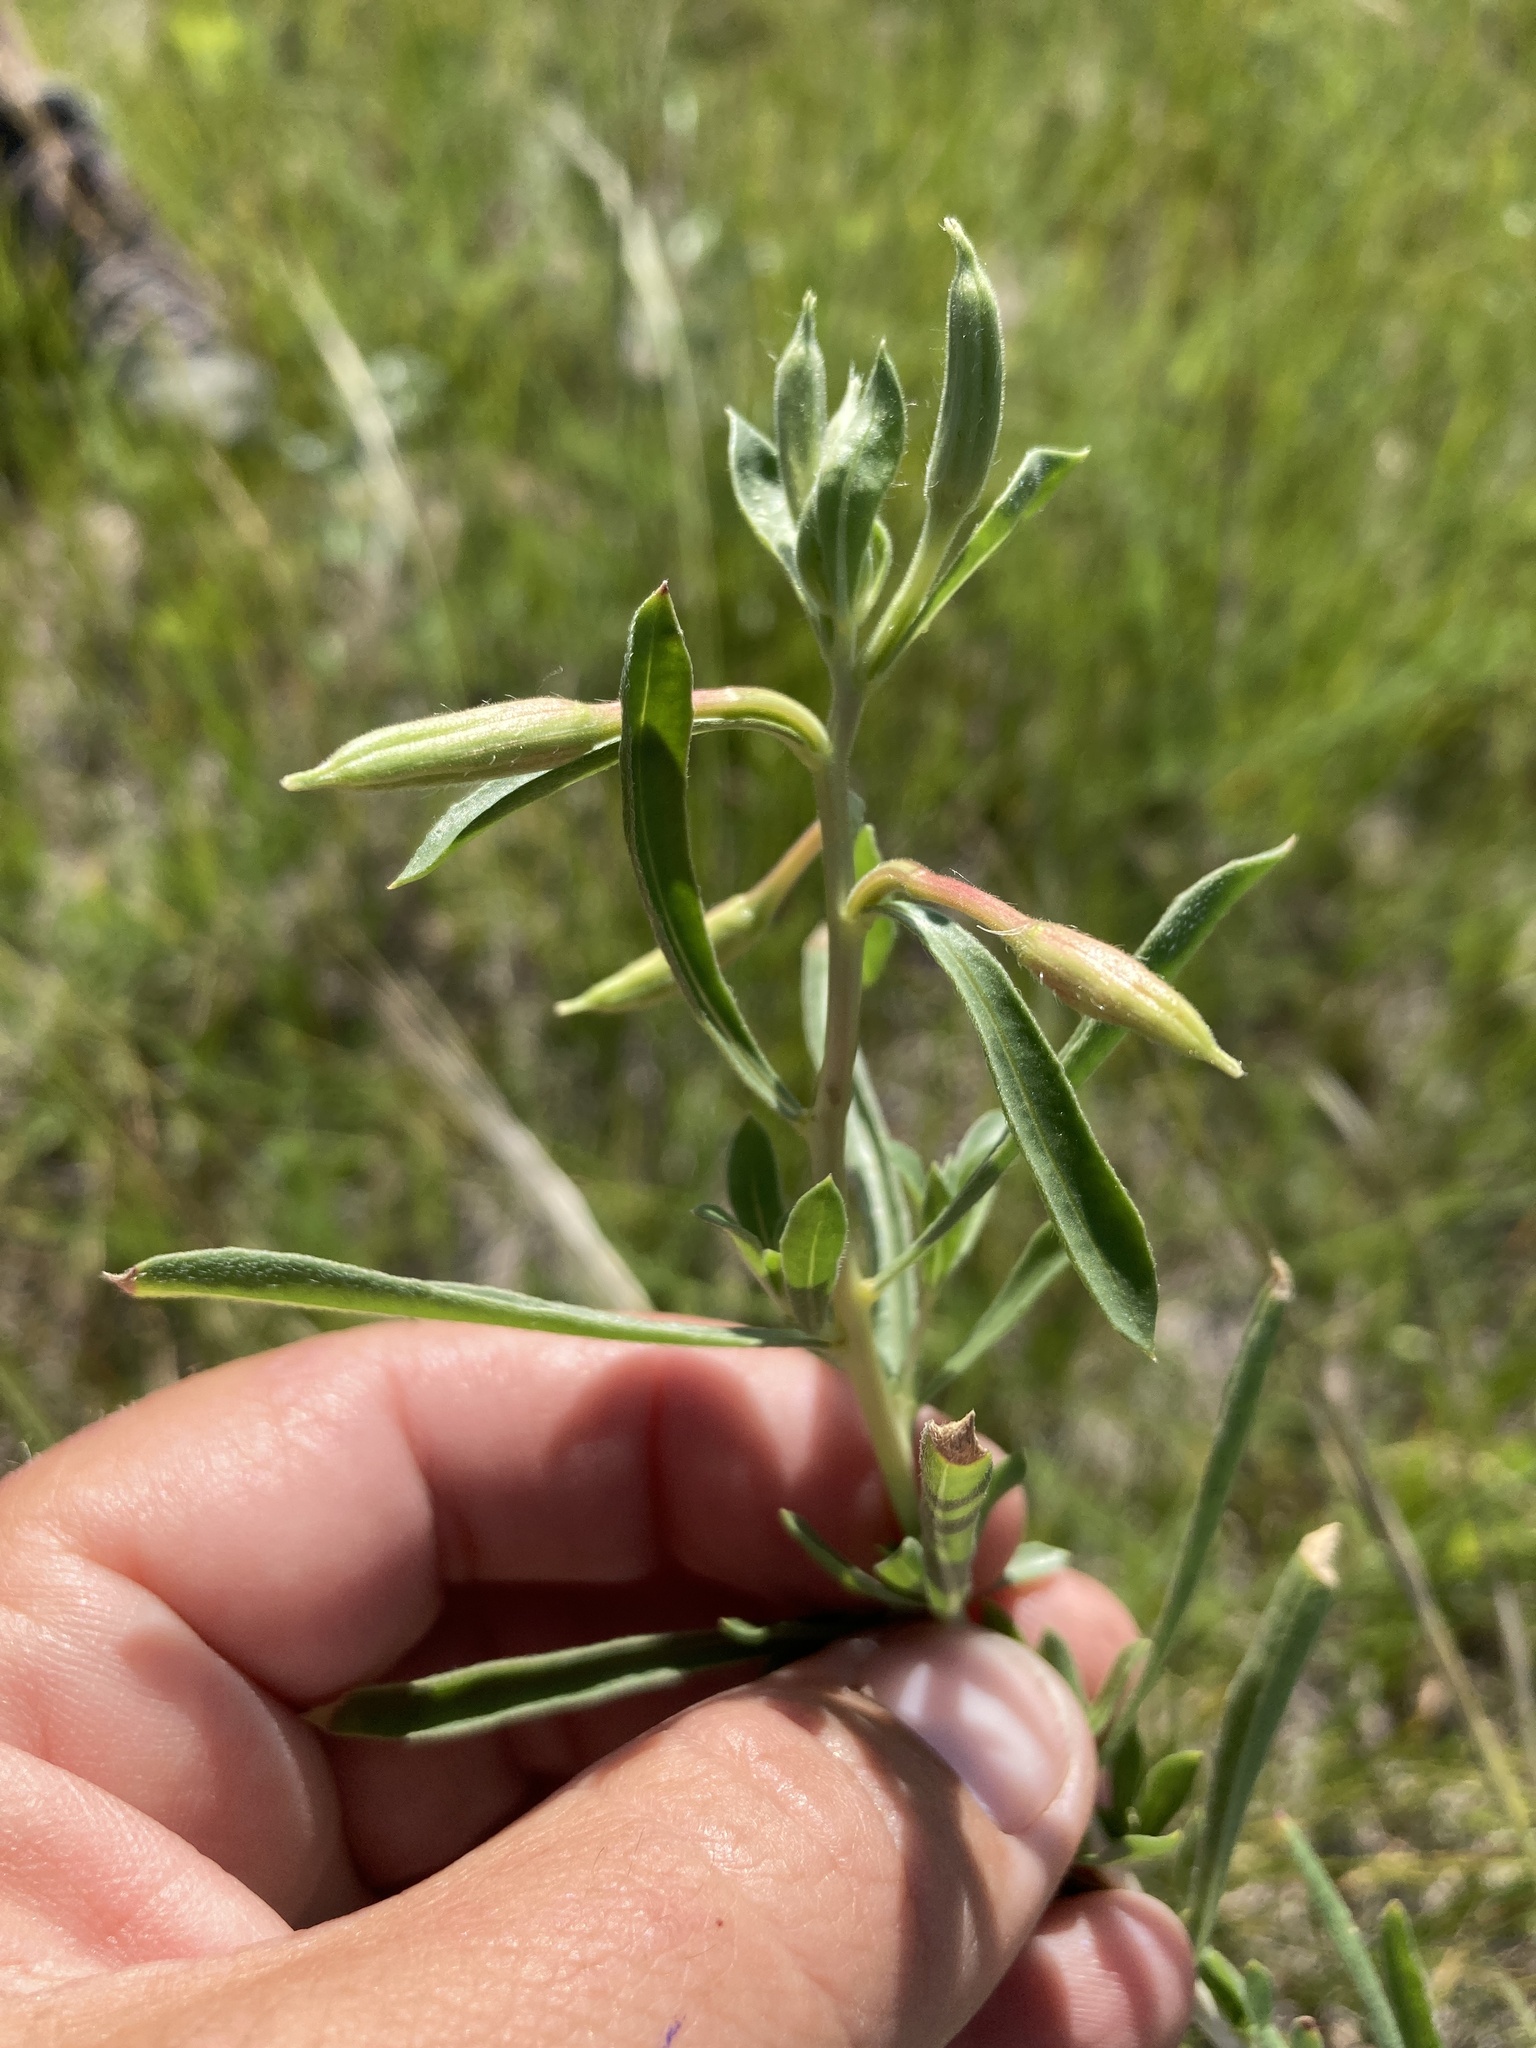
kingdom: Plantae
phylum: Tracheophyta
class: Magnoliopsida
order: Myrtales
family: Onagraceae
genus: Oenothera
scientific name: Oenothera nuttallii
